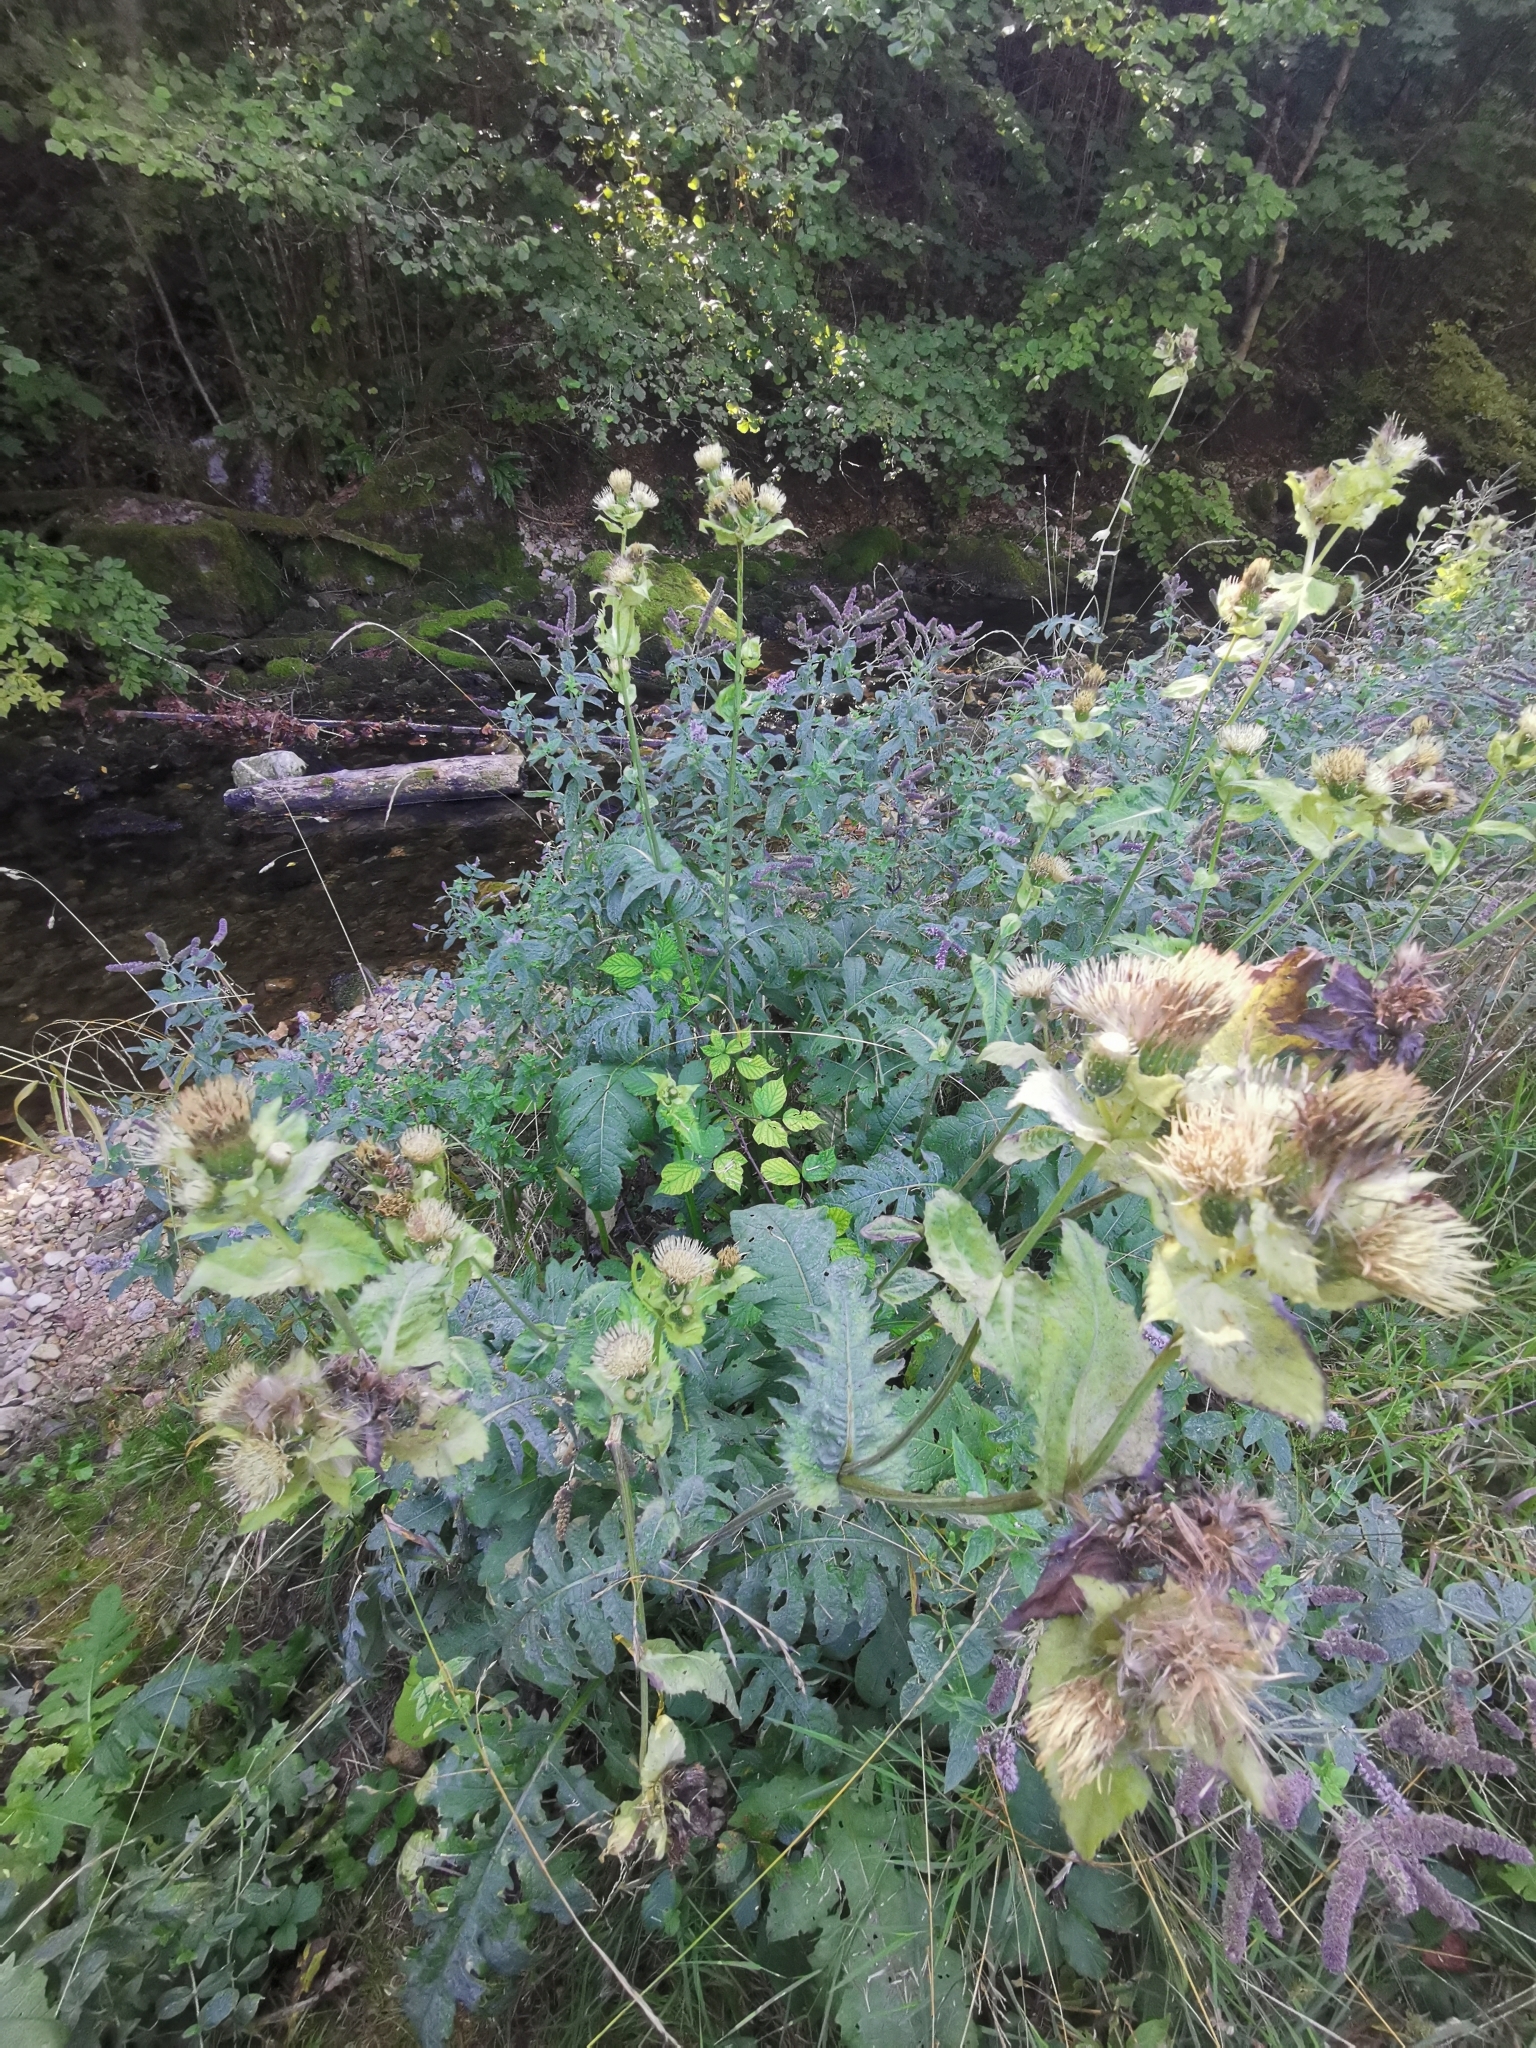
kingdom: Plantae
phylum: Tracheophyta
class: Magnoliopsida
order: Asterales
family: Asteraceae
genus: Cirsium
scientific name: Cirsium oleraceum
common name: Cabbage thistle
